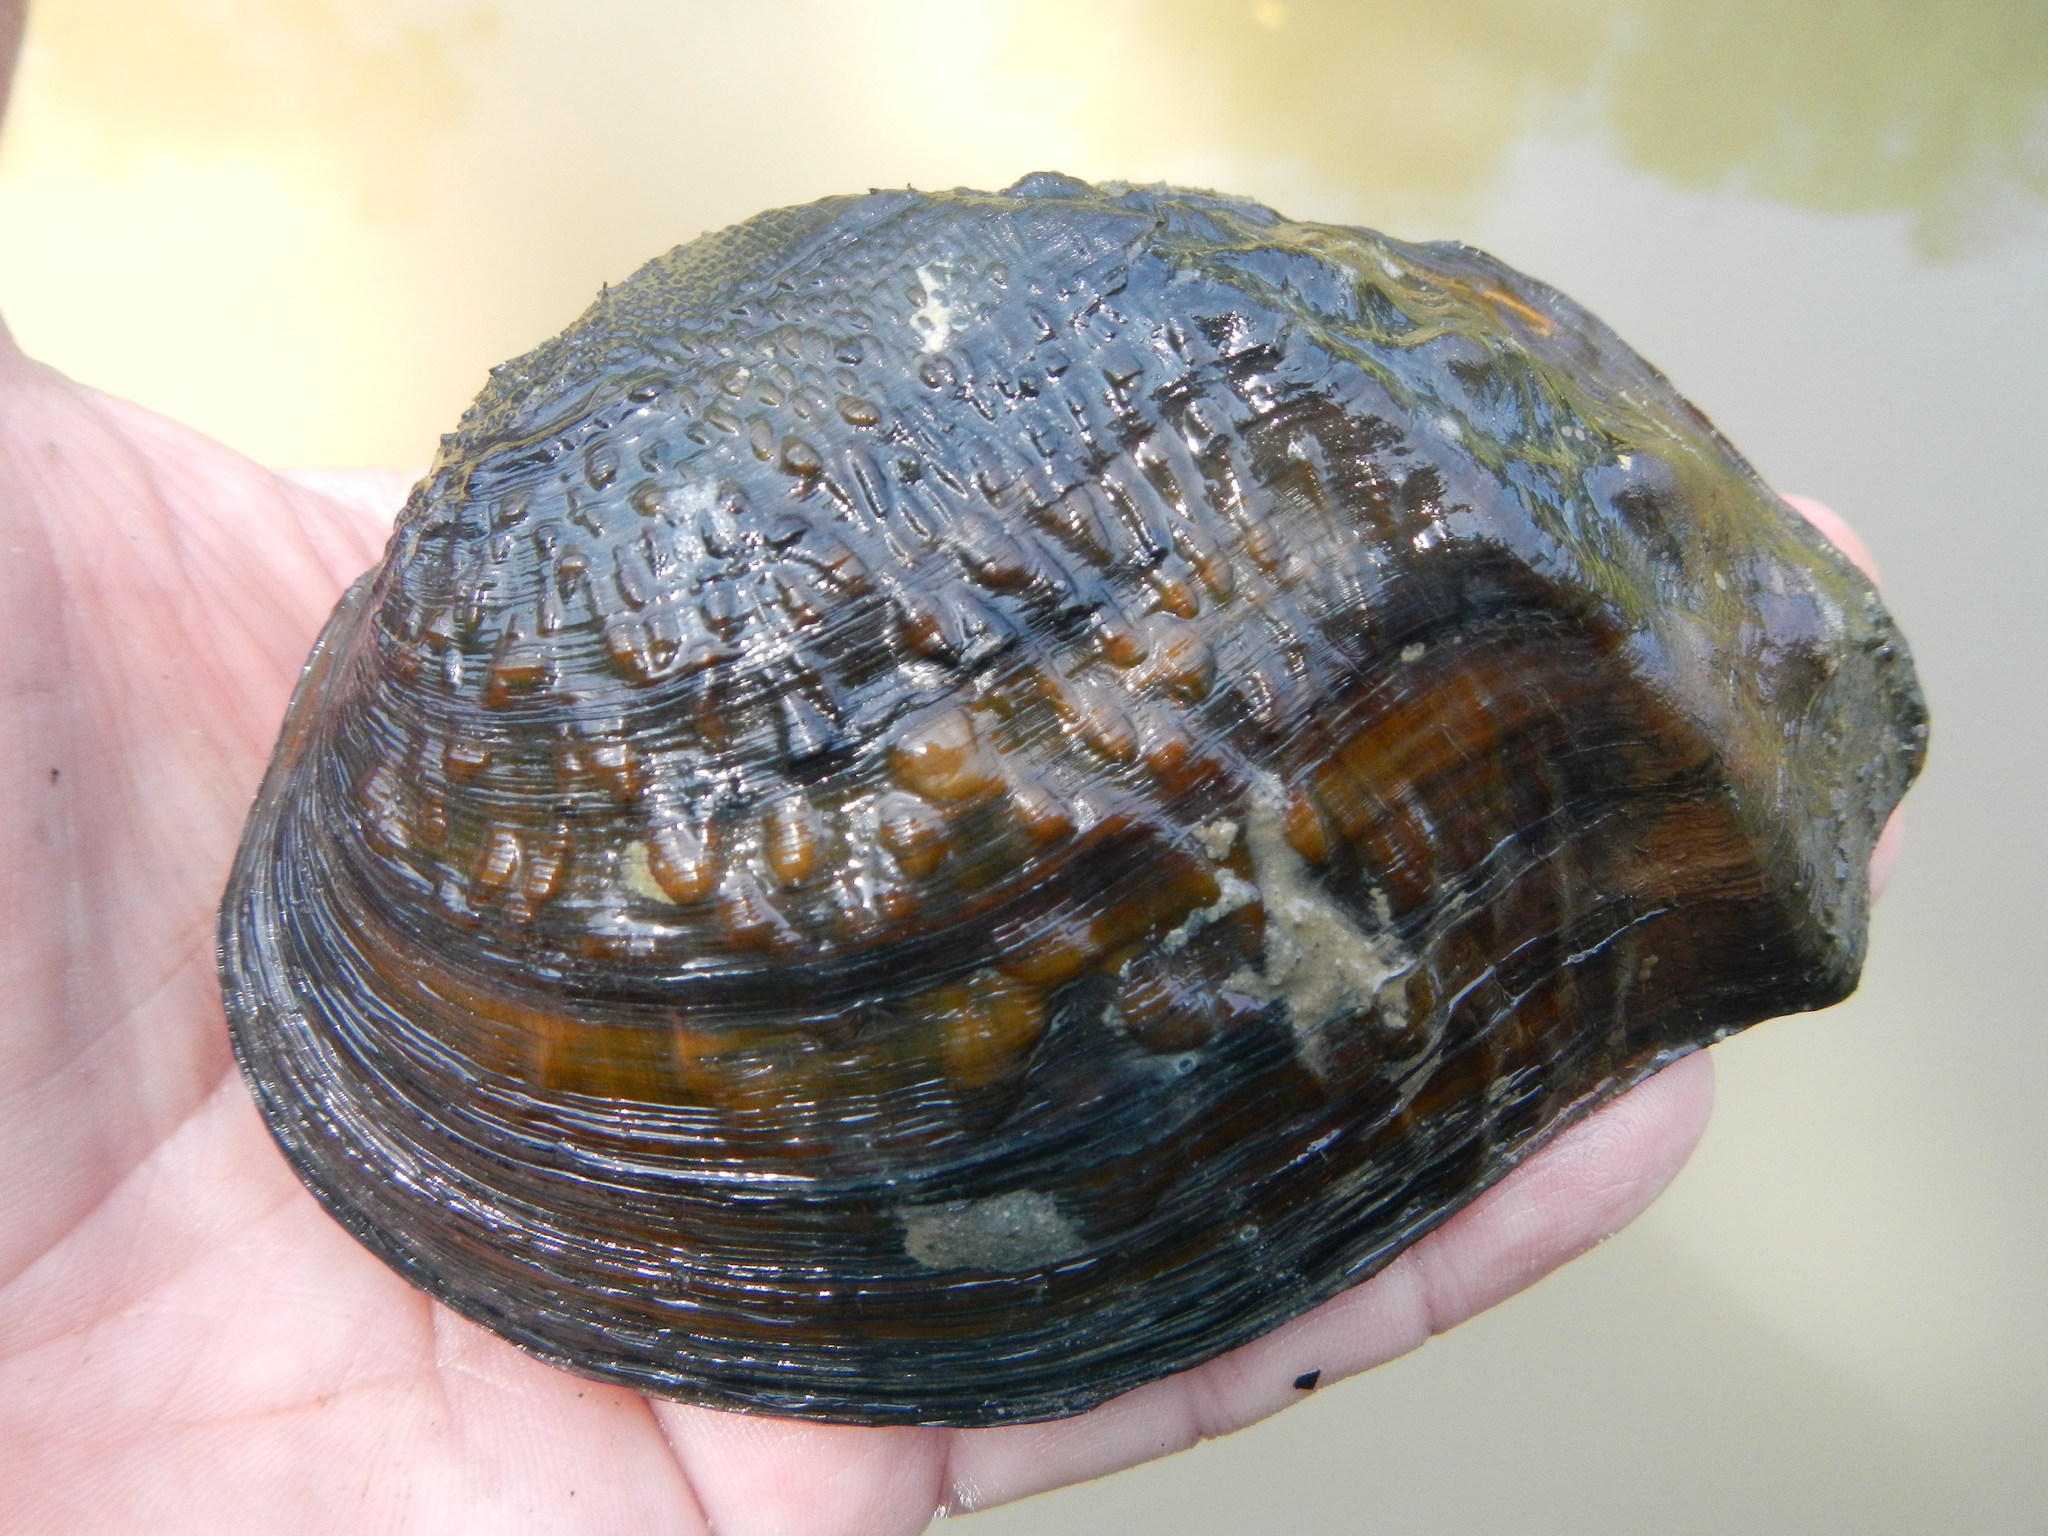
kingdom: Animalia
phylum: Mollusca
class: Bivalvia
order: Unionida
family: Unionidae
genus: Tritogonia
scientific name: Tritogonia verrucosa
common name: Pistolgrip
